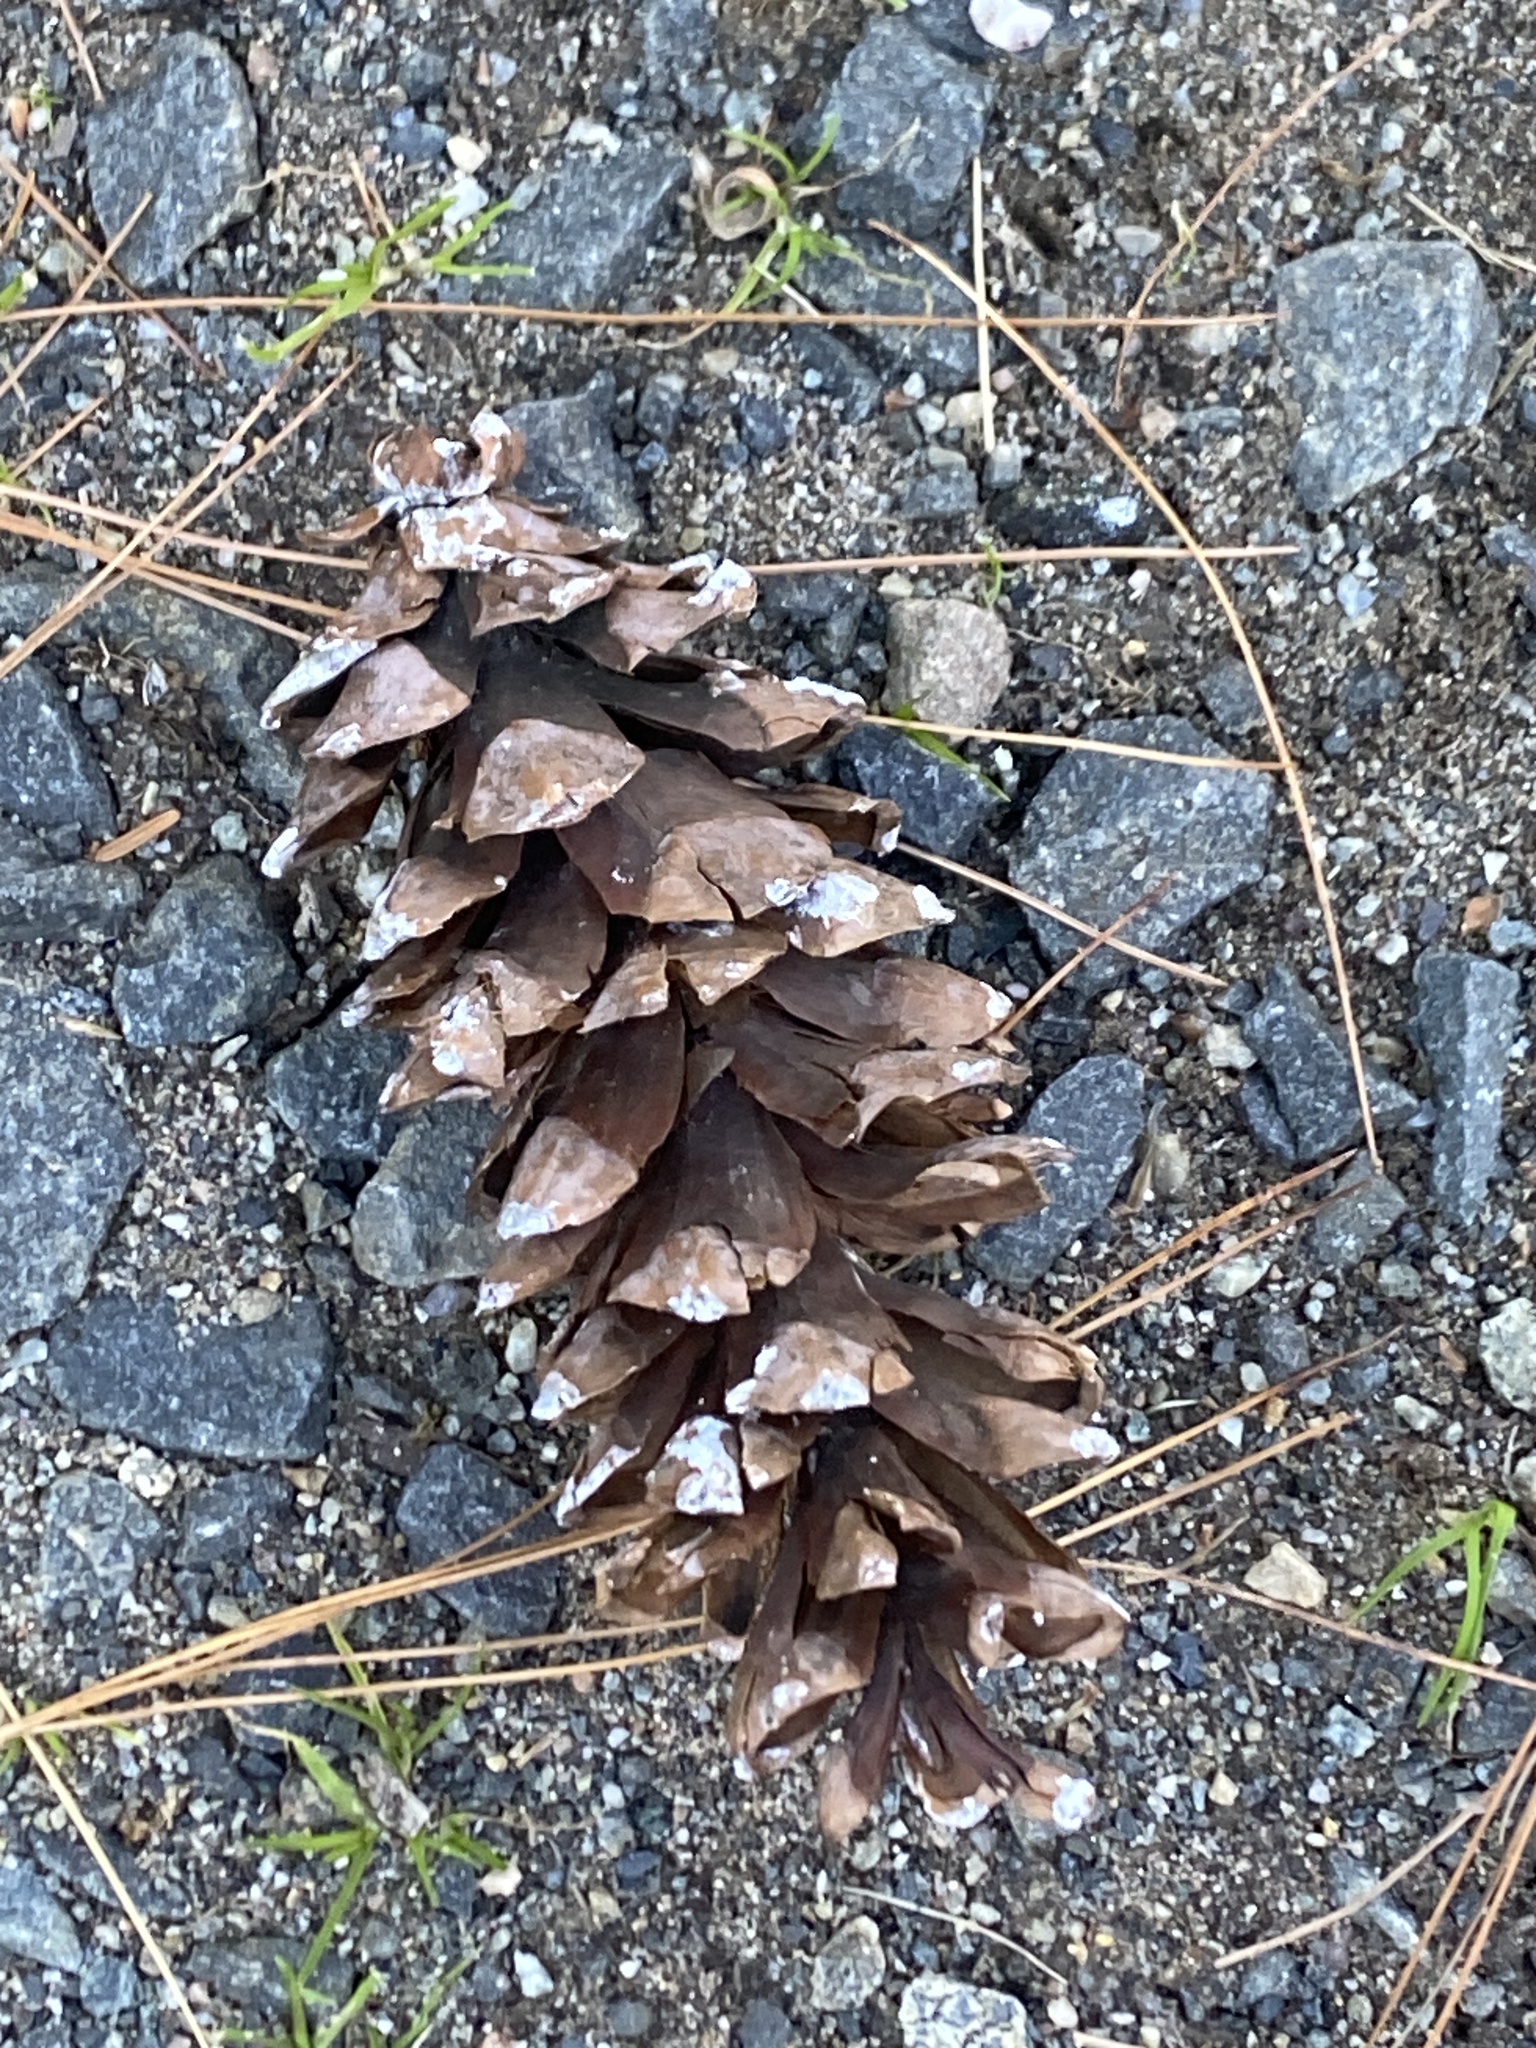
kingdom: Plantae
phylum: Tracheophyta
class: Pinopsida
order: Pinales
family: Pinaceae
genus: Pinus
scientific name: Pinus strobus
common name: Weymouth pine
